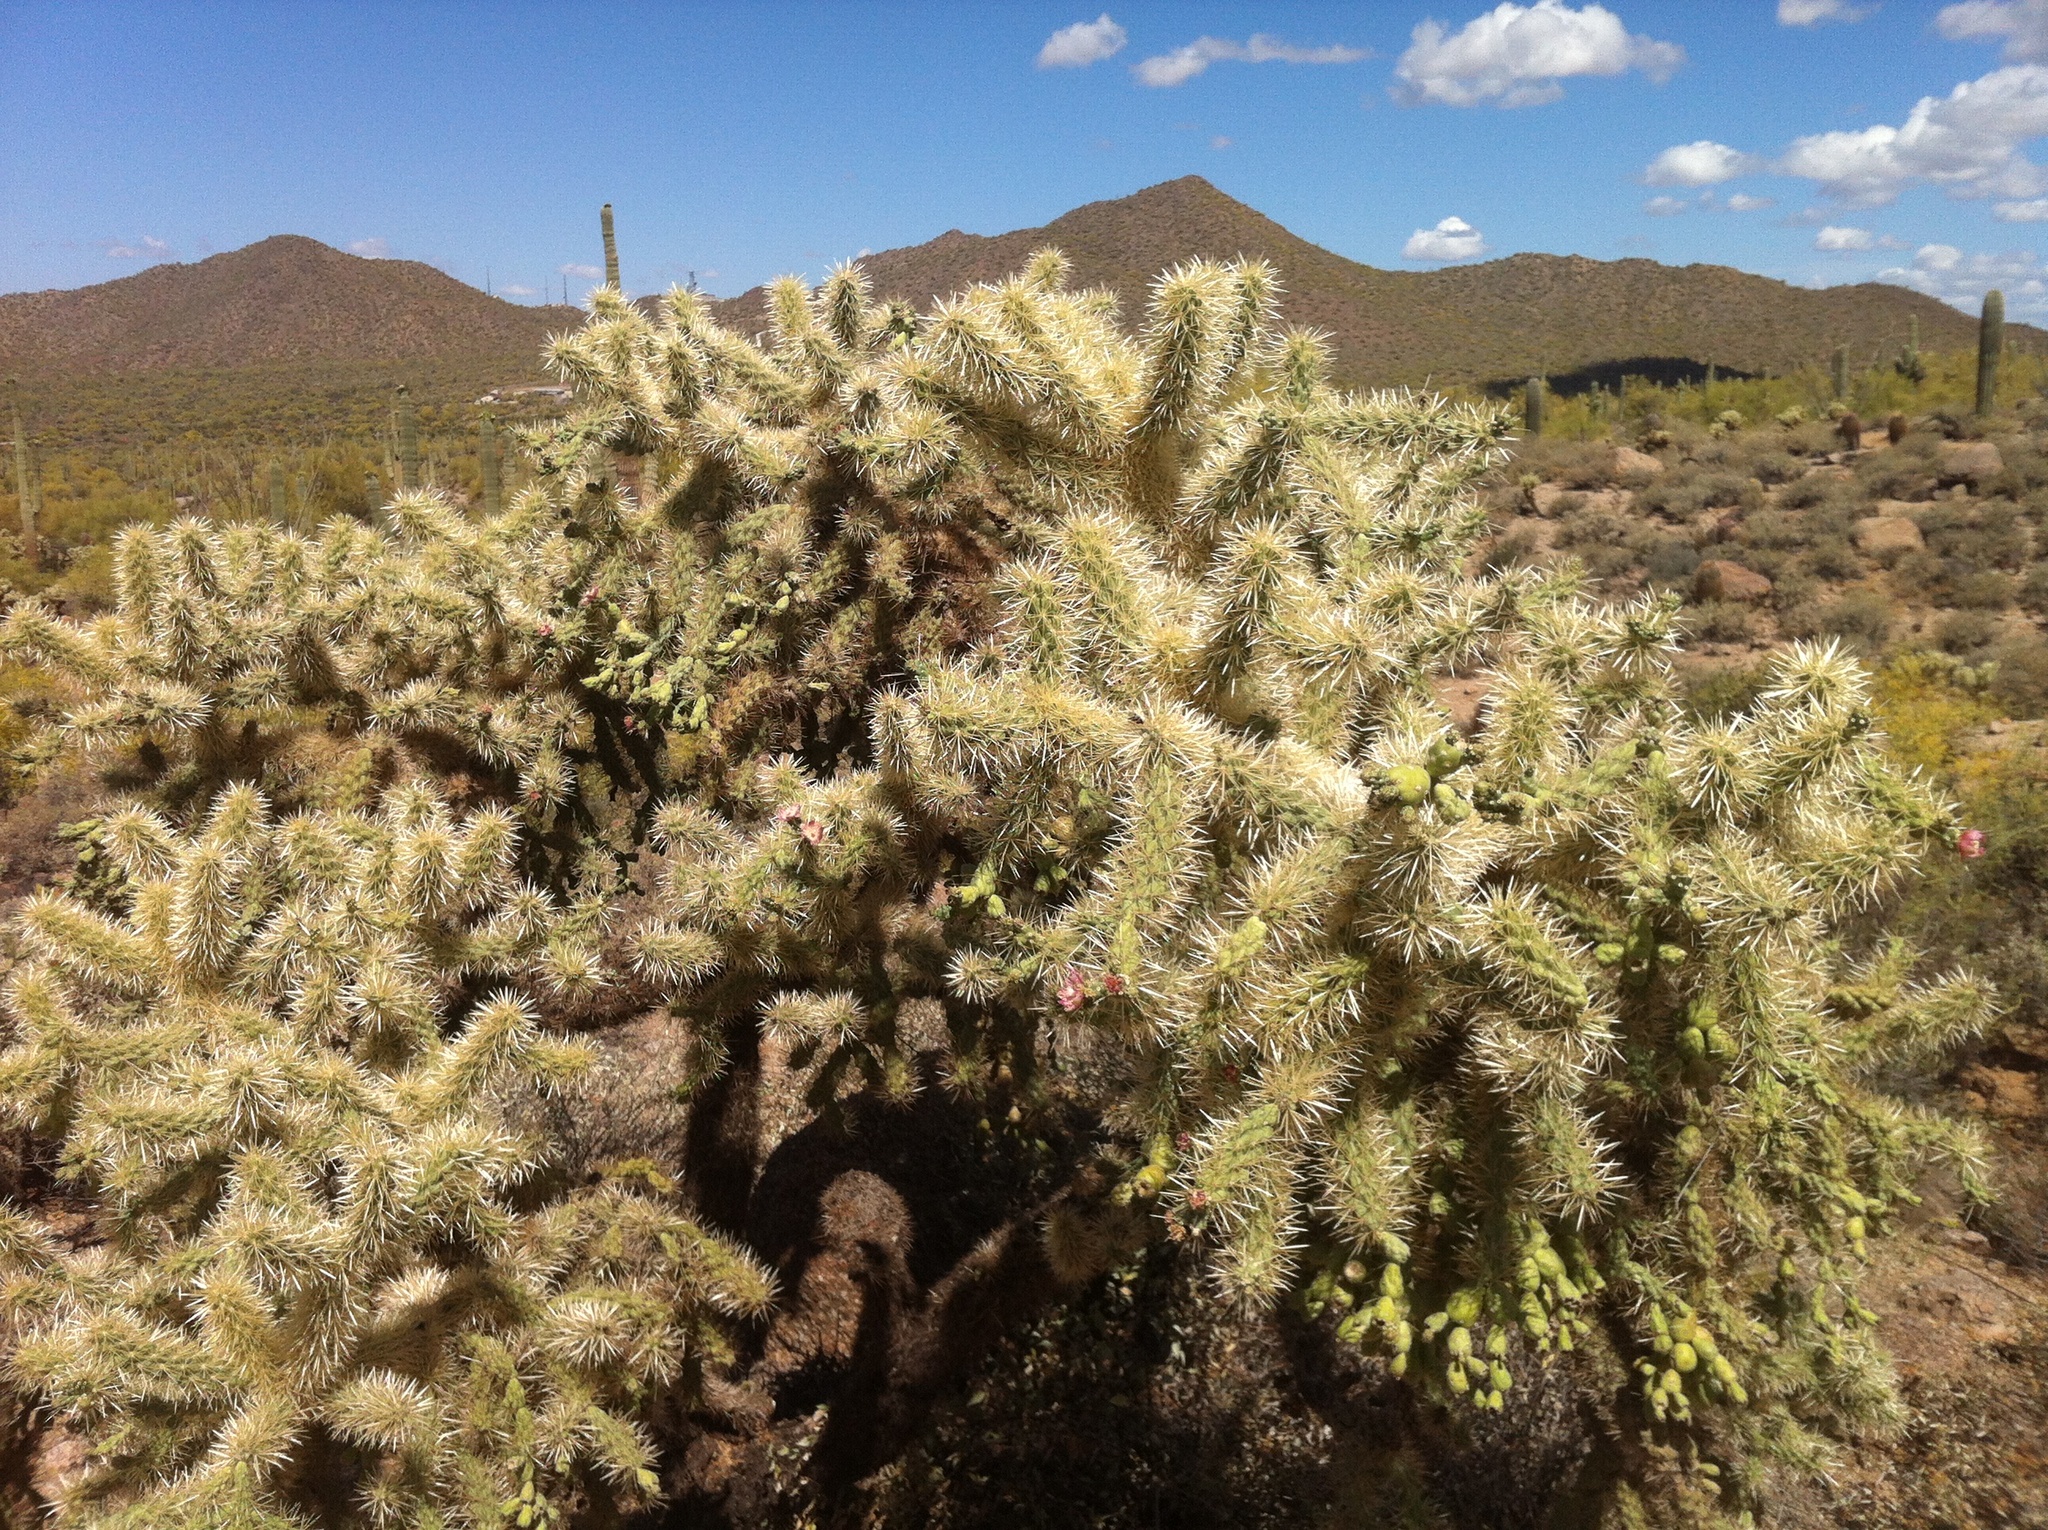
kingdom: Plantae
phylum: Tracheophyta
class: Magnoliopsida
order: Caryophyllales
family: Cactaceae
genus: Cylindropuntia
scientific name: Cylindropuntia fulgida
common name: Jumping cholla
